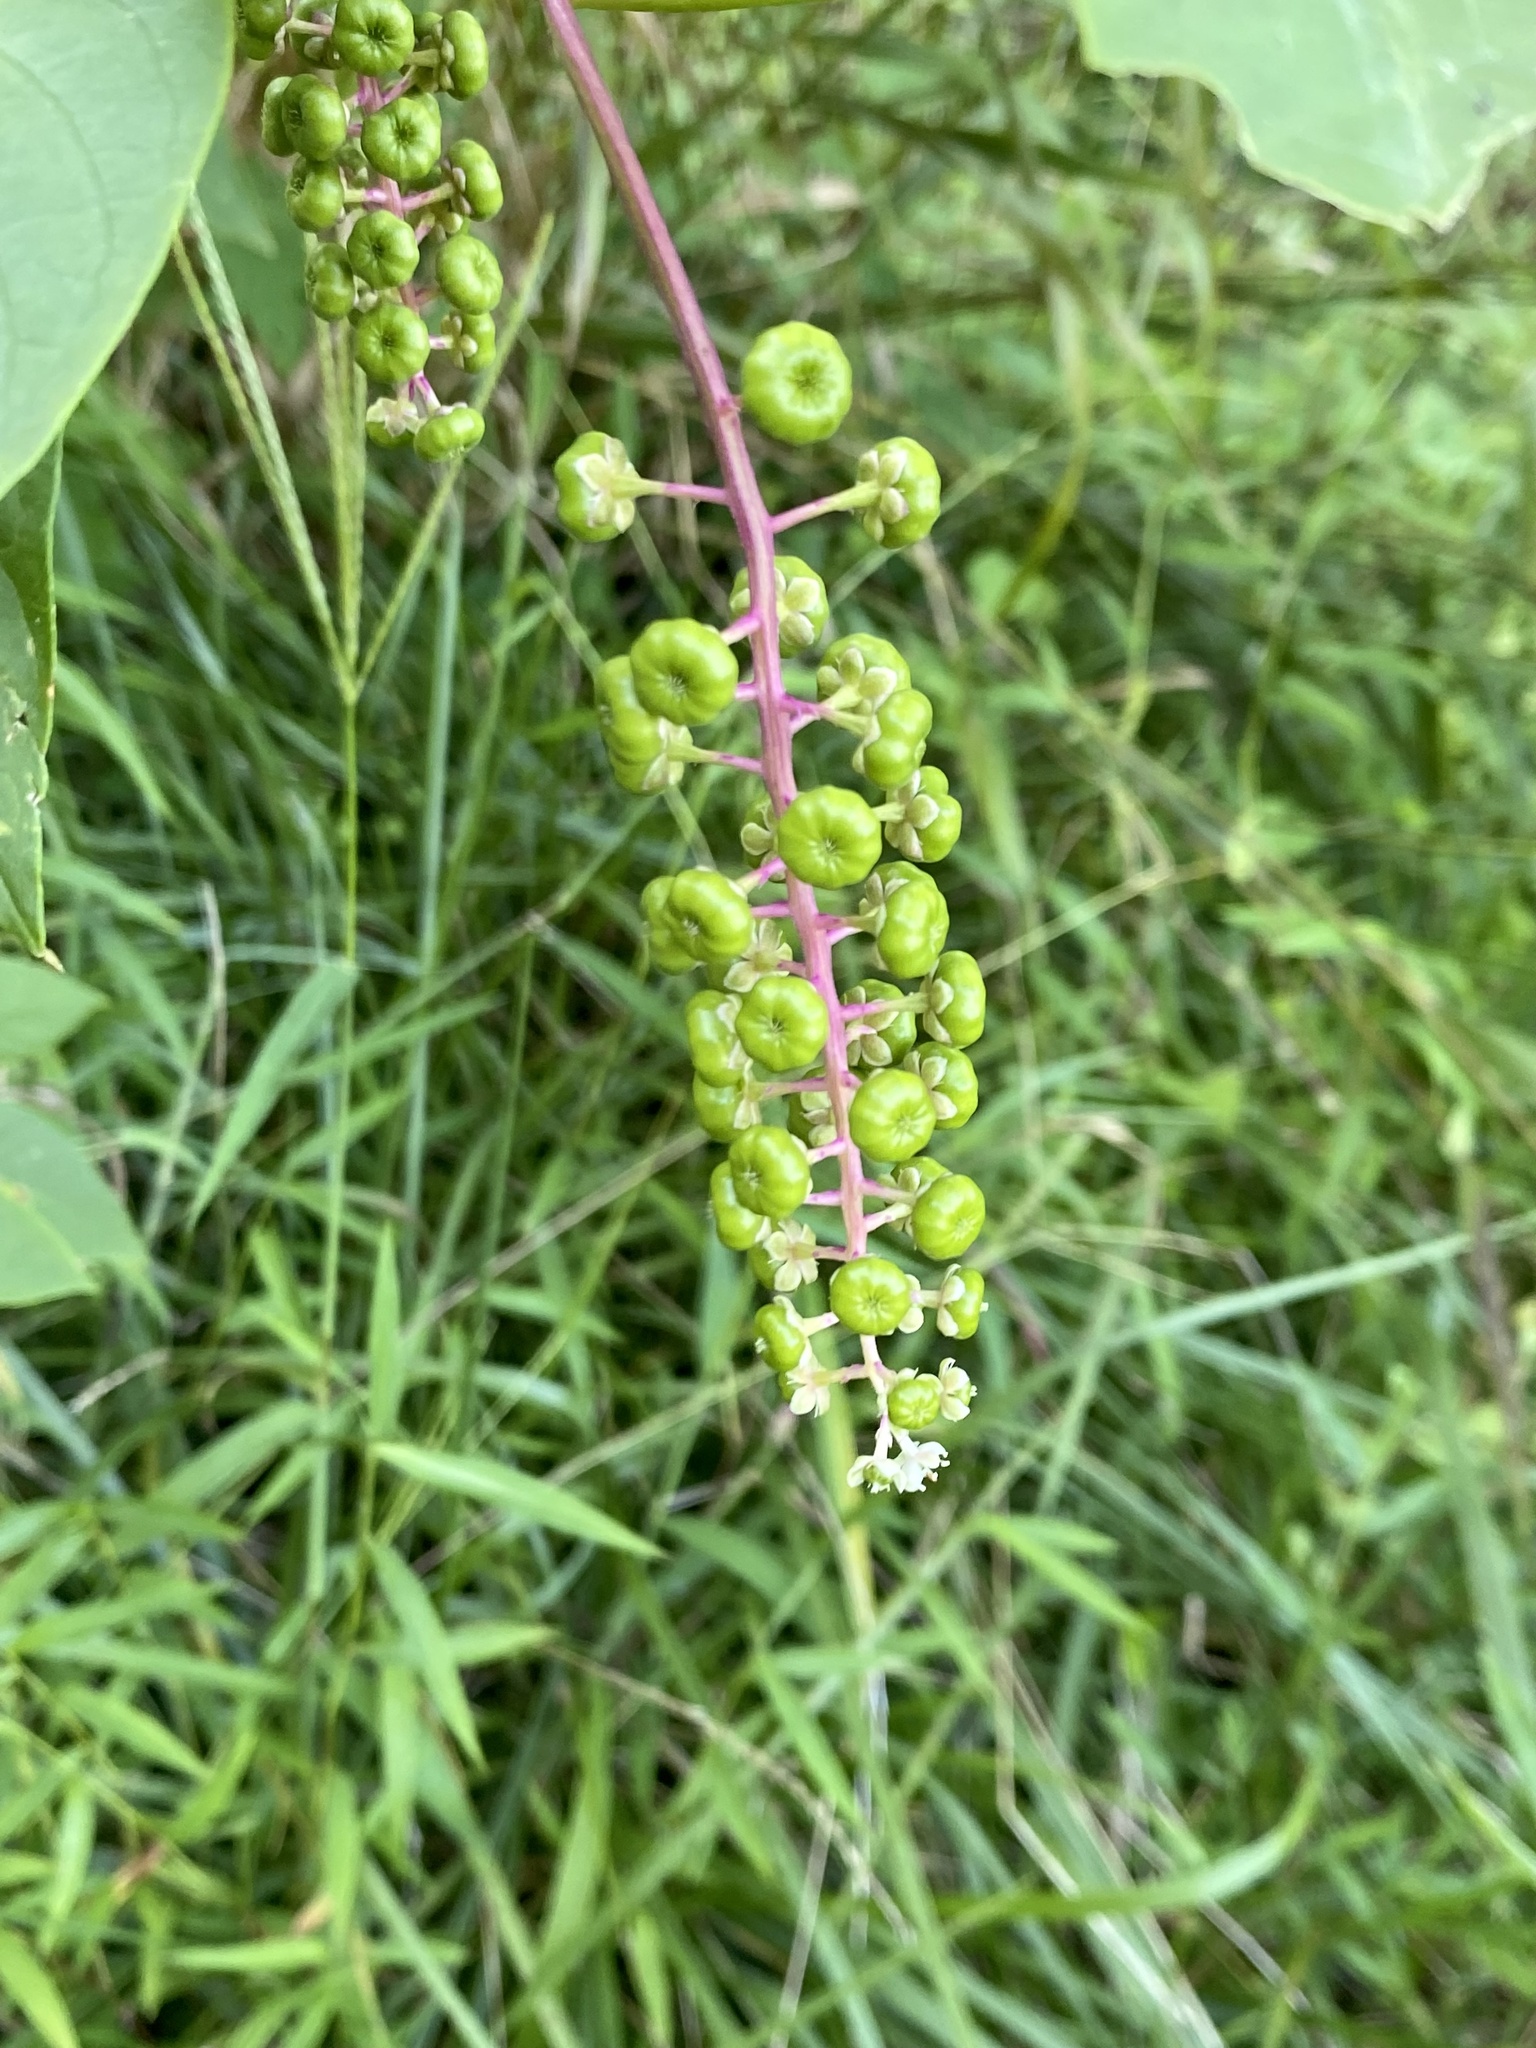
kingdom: Plantae
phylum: Tracheophyta
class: Magnoliopsida
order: Caryophyllales
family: Phytolaccaceae
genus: Phytolacca
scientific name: Phytolacca americana
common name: American pokeweed
